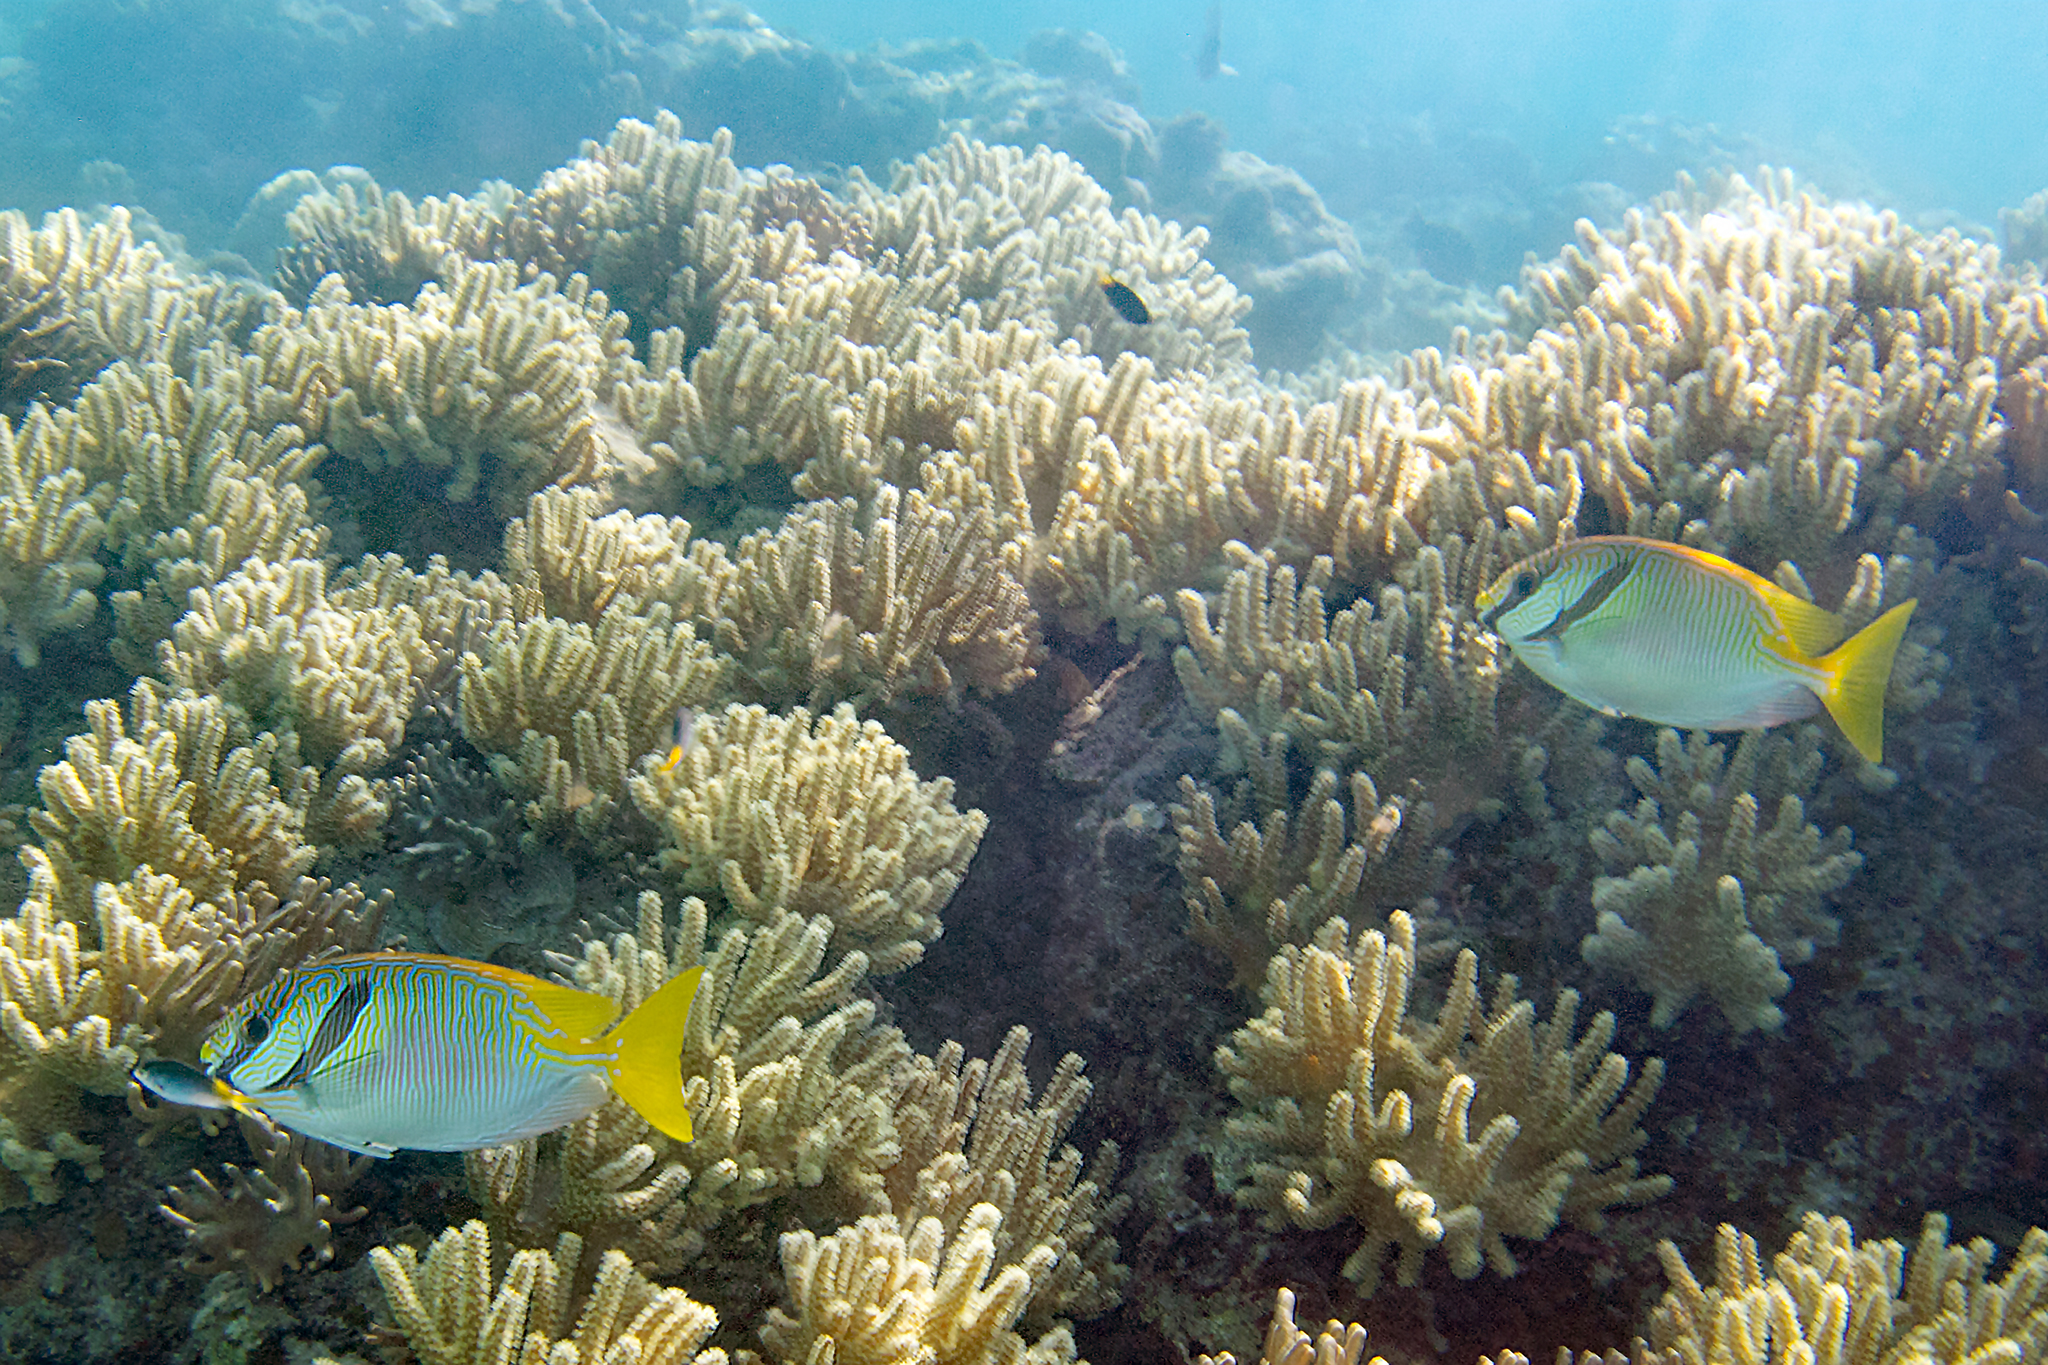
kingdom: Animalia
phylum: Chordata
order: Perciformes
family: Siganidae
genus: Siganus
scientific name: Siganus doliatus
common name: Barred spinefoot
